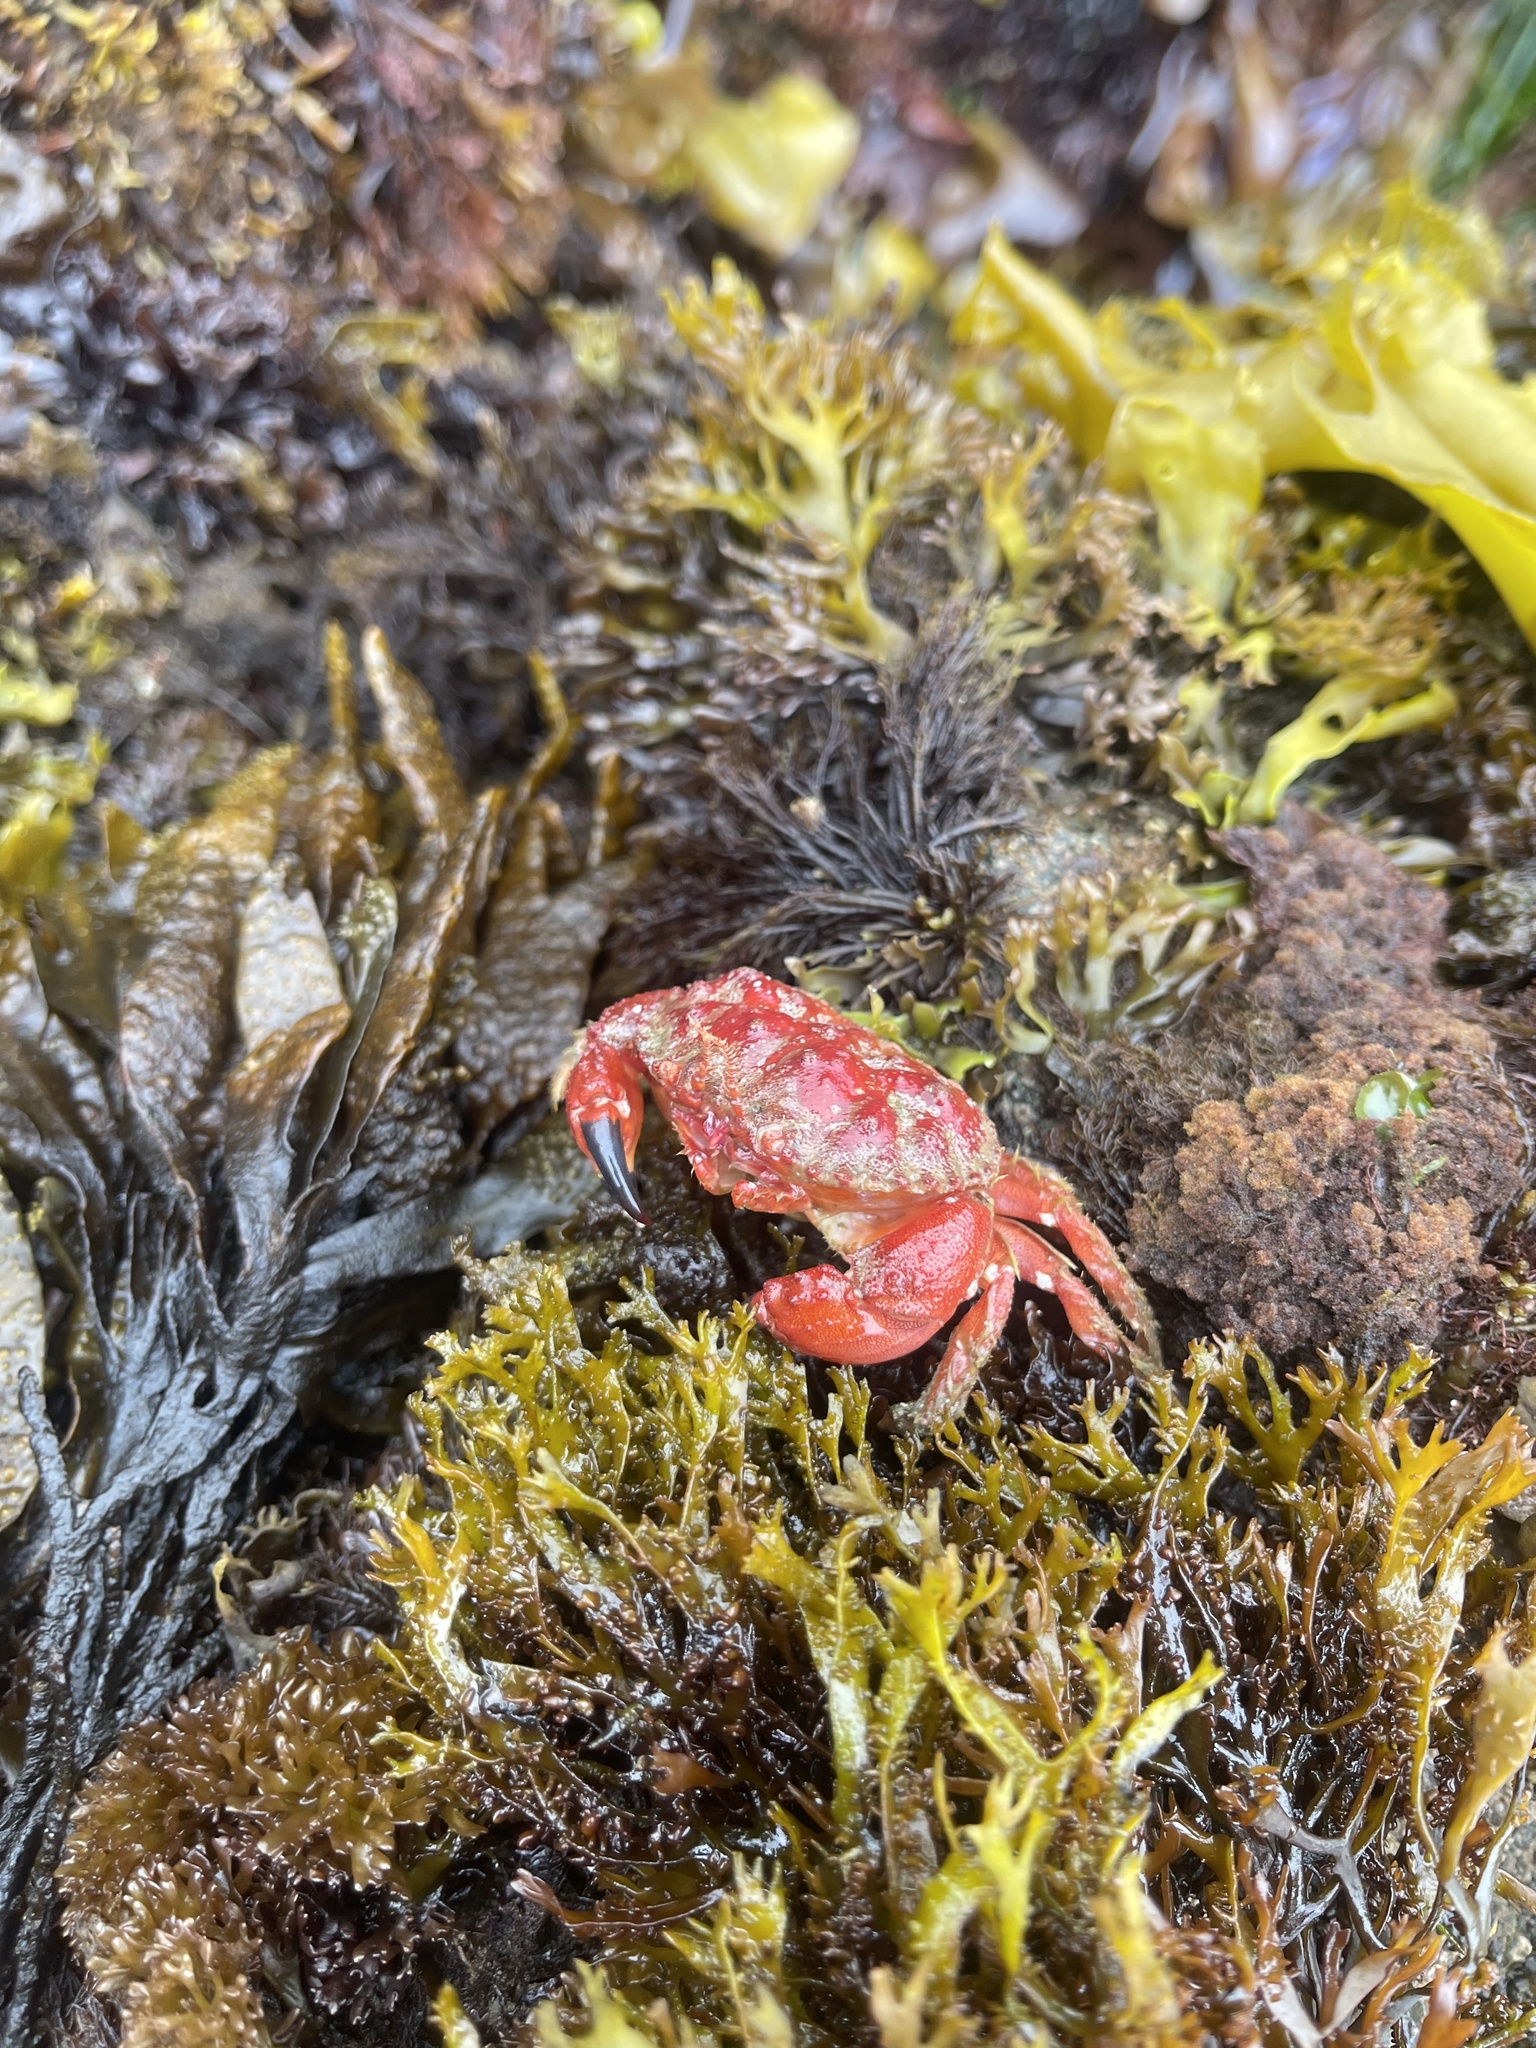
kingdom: Animalia
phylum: Arthropoda
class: Malacostraca
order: Decapoda
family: Cancridae
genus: Glebocarcinus
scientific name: Glebocarcinus oregonensis
